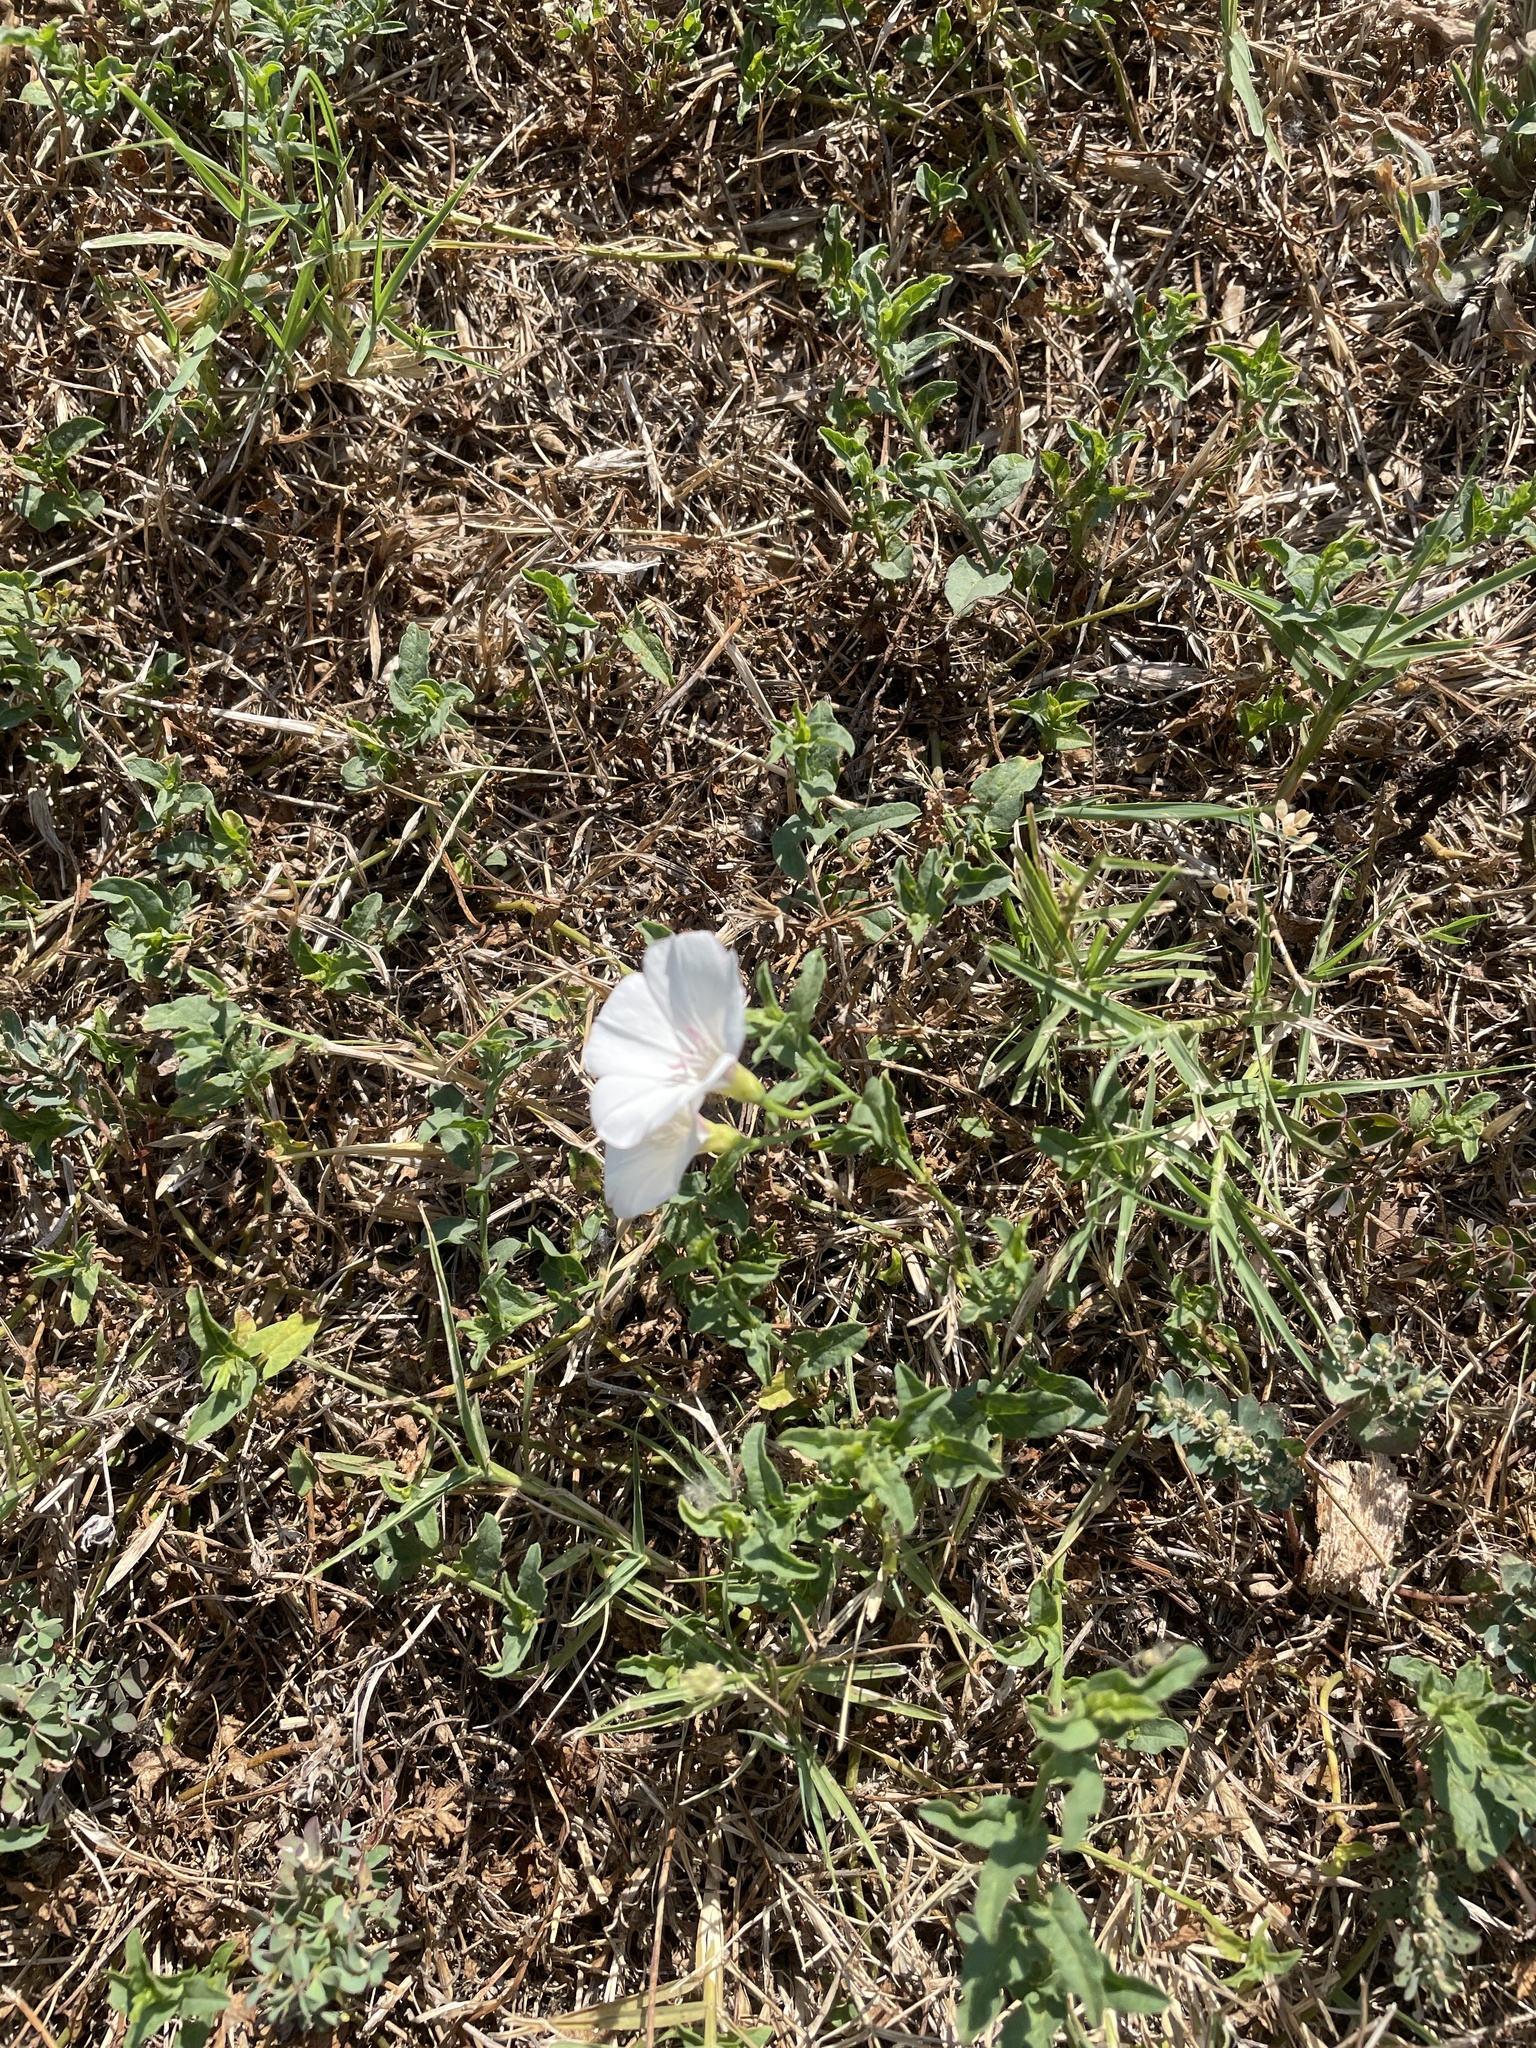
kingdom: Plantae
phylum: Tracheophyta
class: Magnoliopsida
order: Solanales
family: Convolvulaceae
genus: Convolvulus
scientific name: Convolvulus arvensis
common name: Field bindweed
